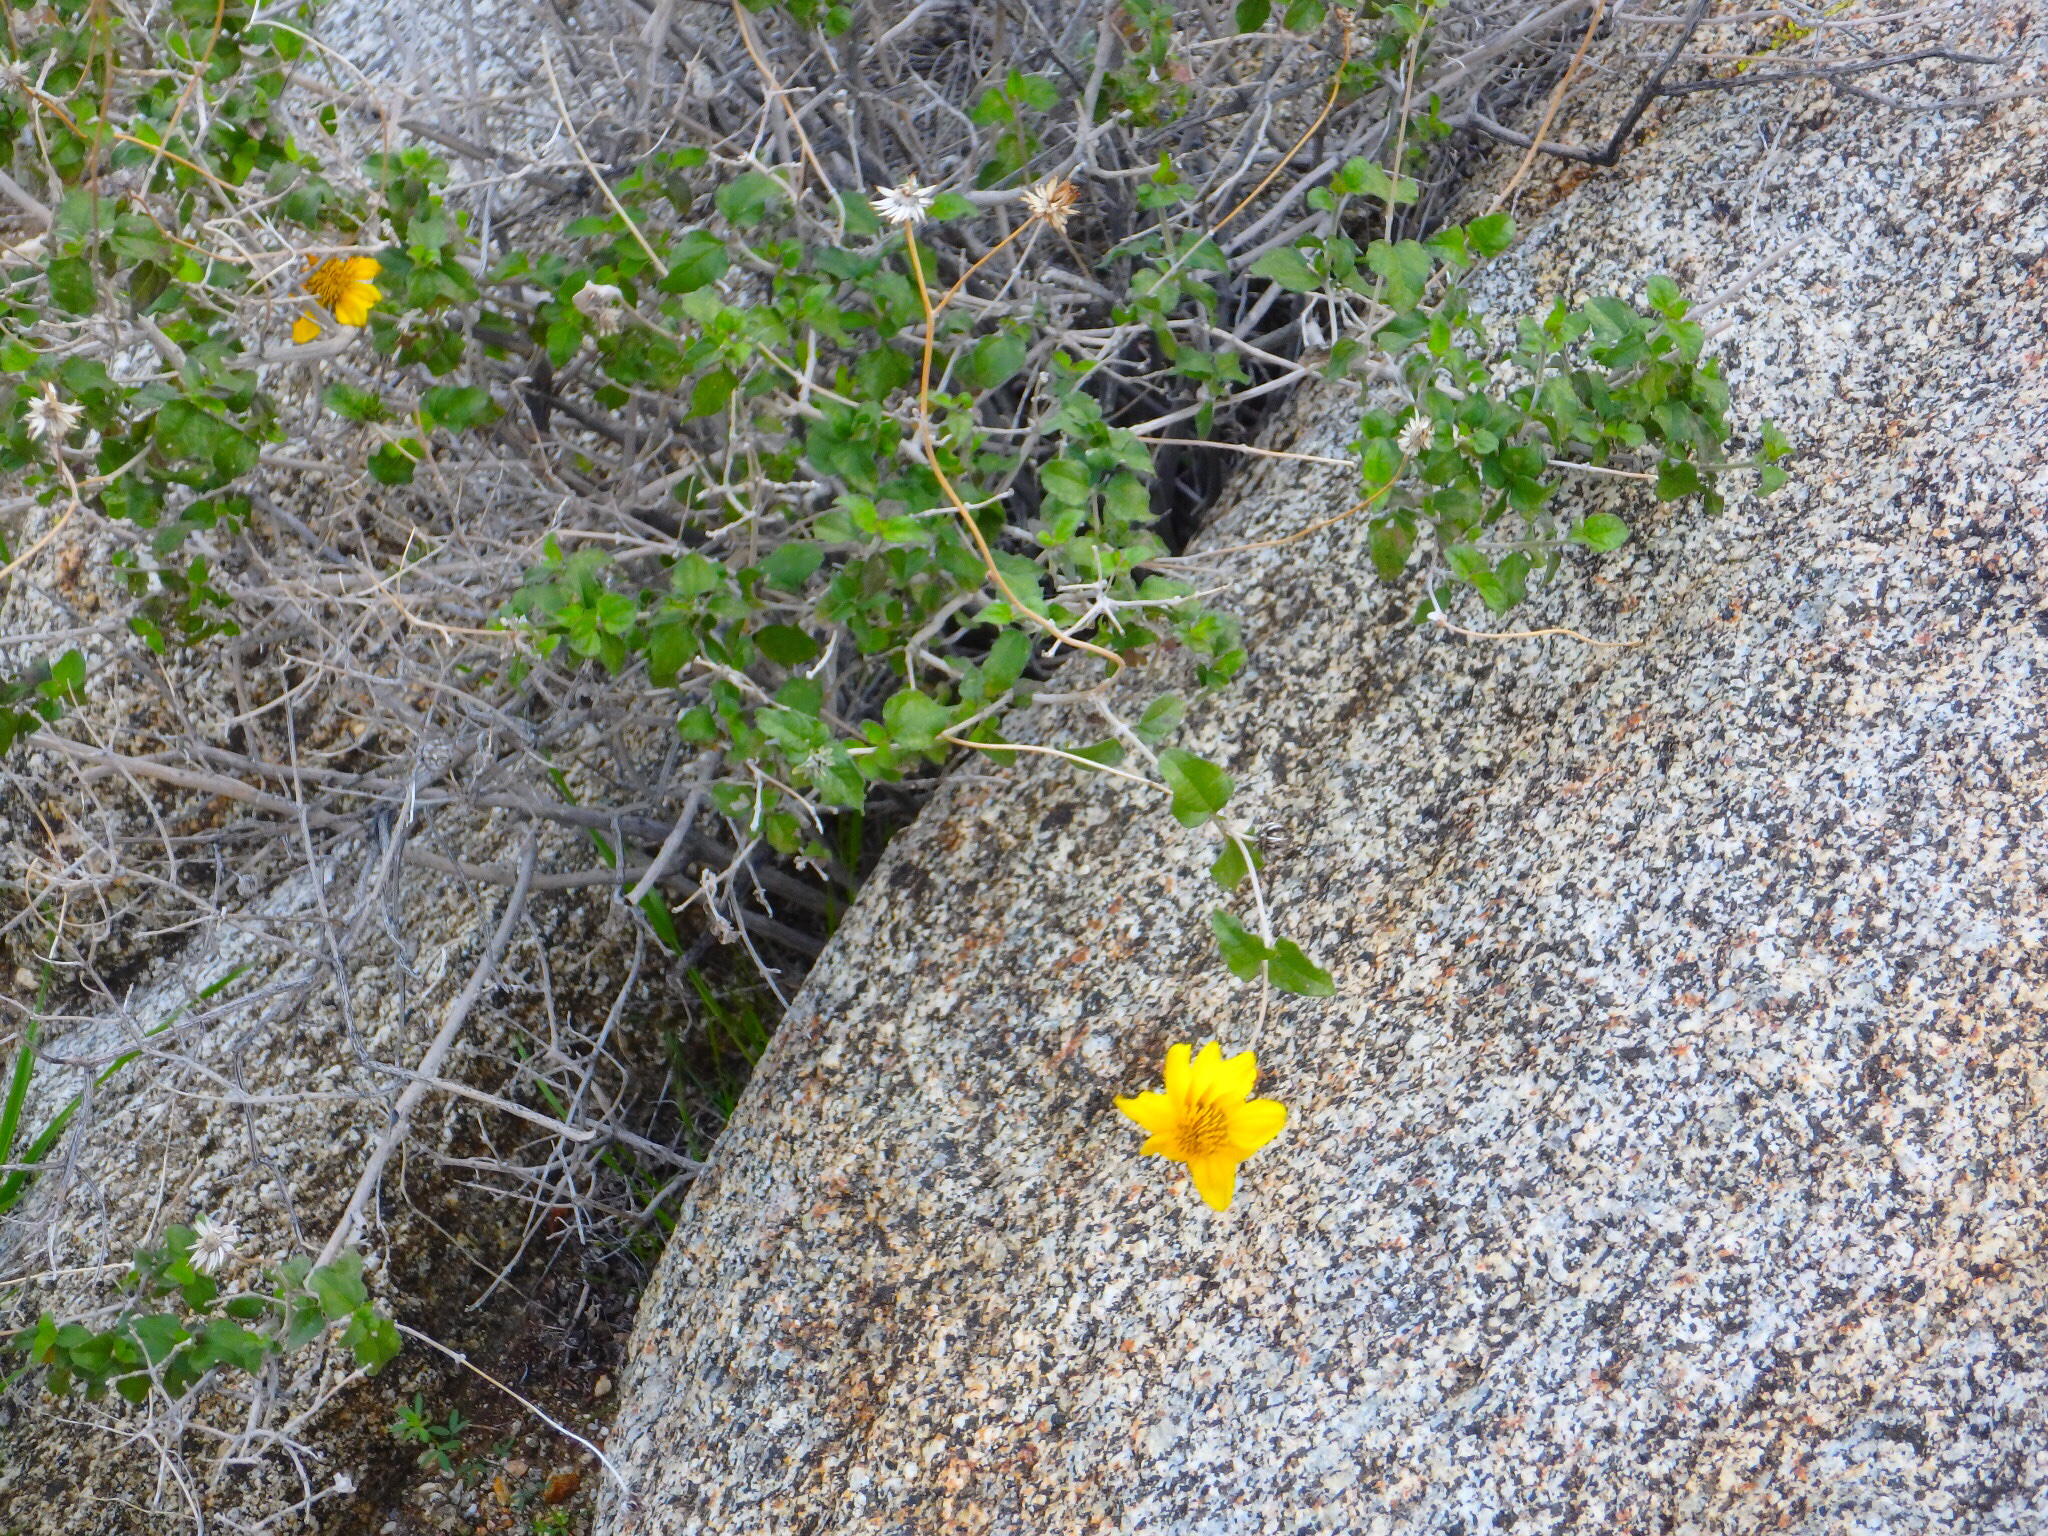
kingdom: Plantae
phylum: Tracheophyta
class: Magnoliopsida
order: Asterales
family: Asteraceae
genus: Bahiopsis
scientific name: Bahiopsis parishii
